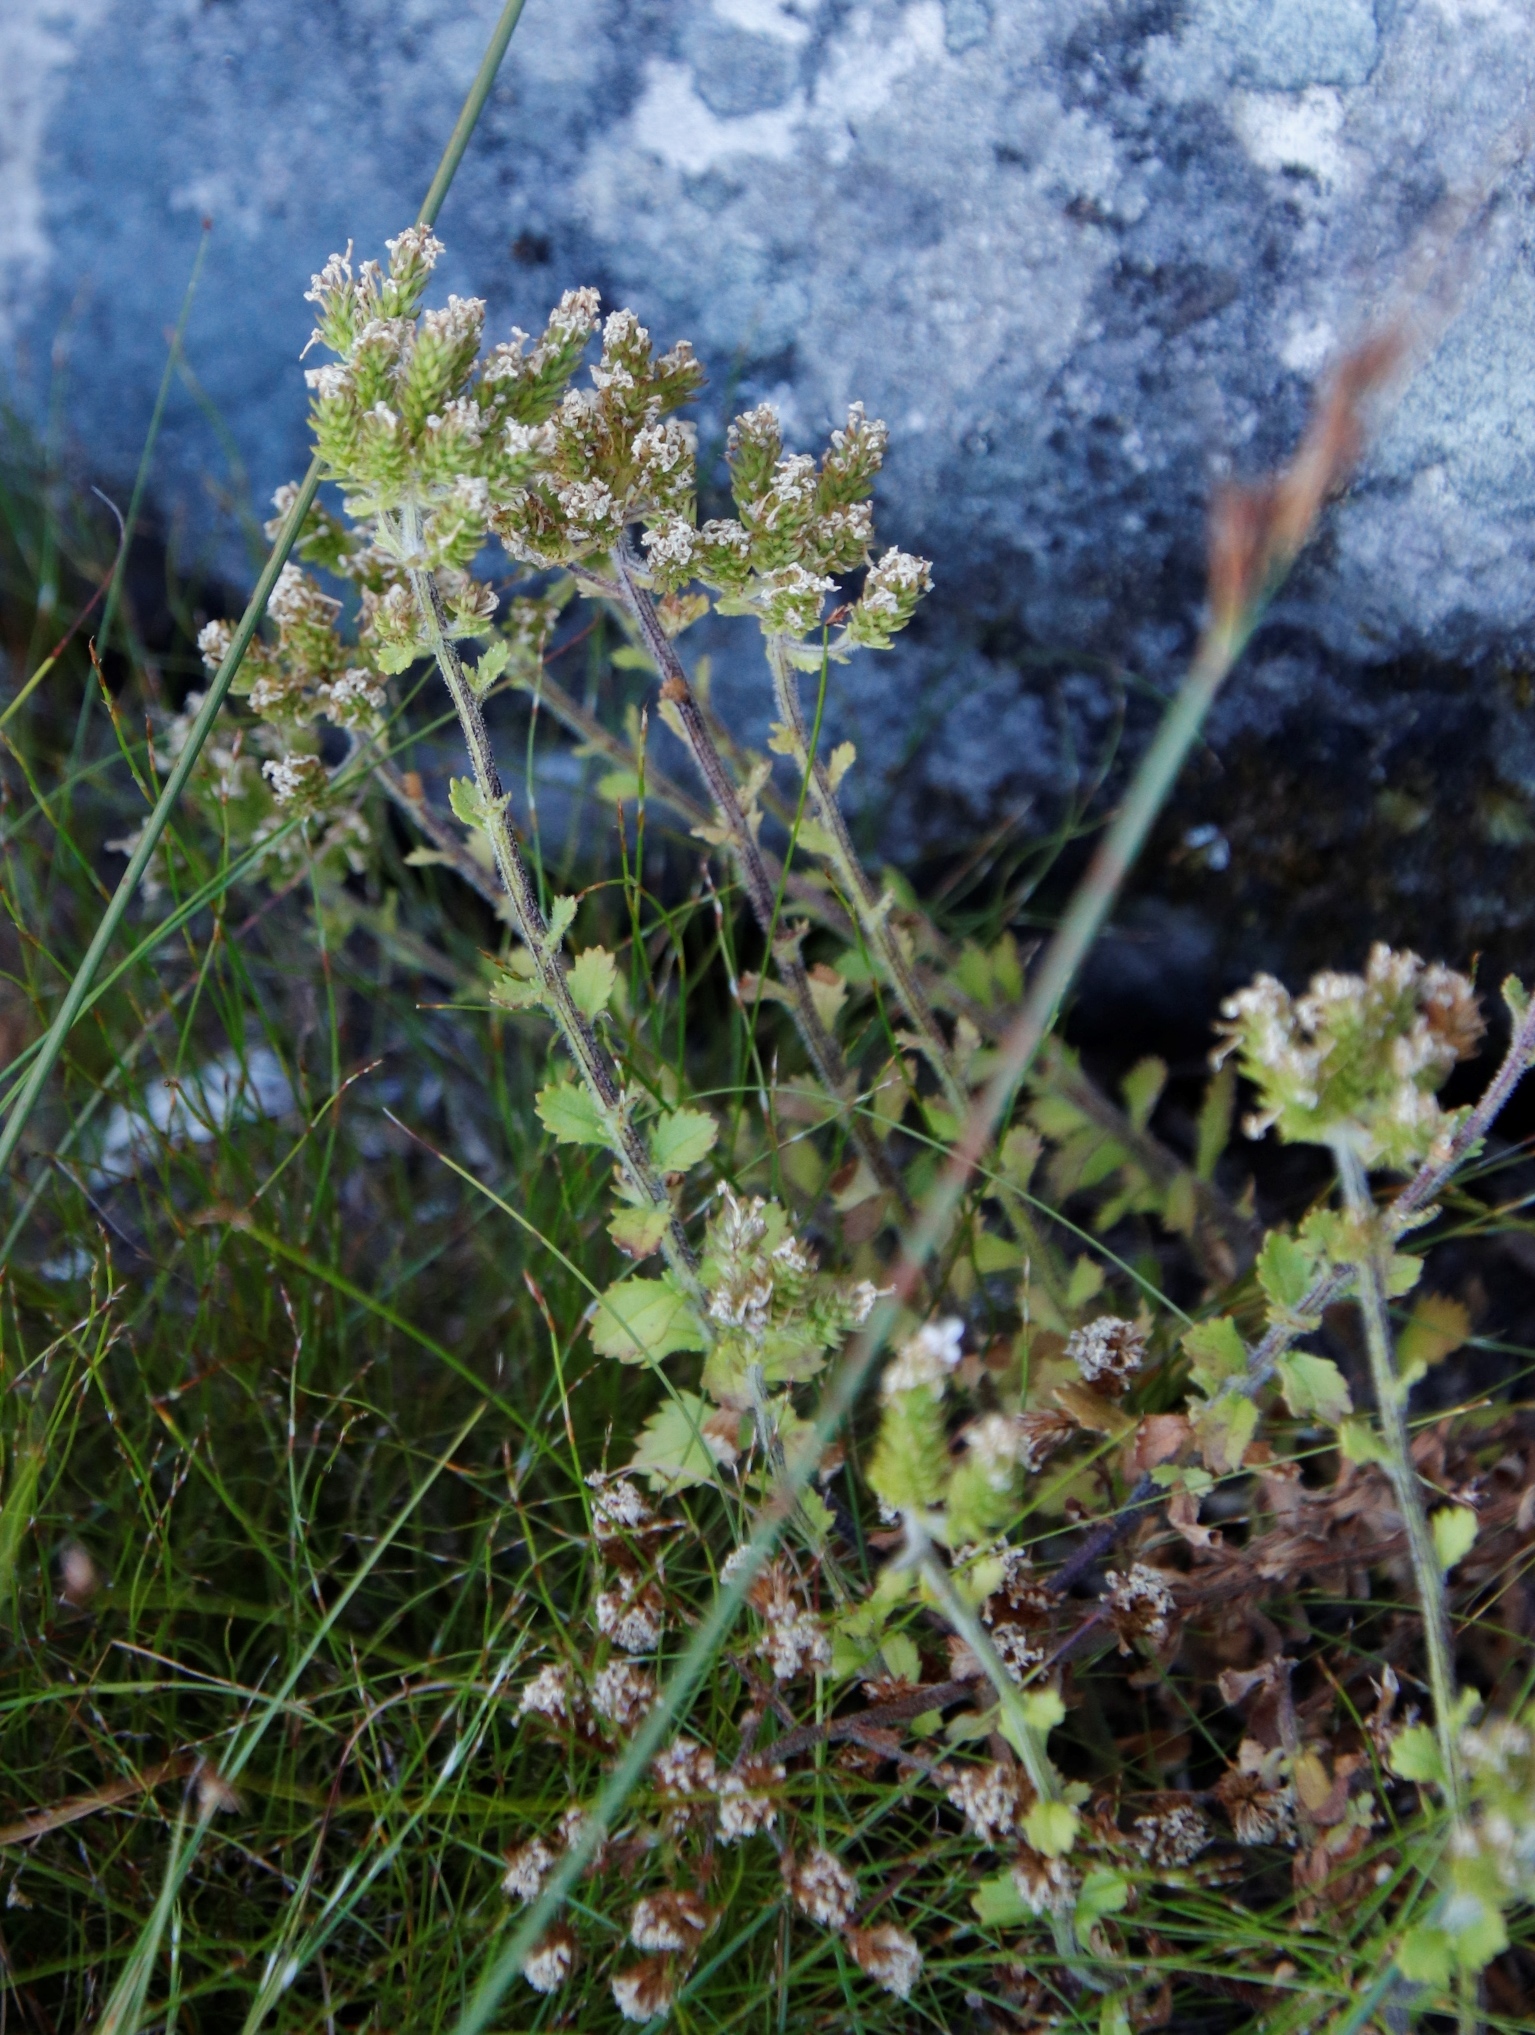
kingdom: Plantae
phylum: Tracheophyta
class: Magnoliopsida
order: Lamiales
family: Scrophulariaceae
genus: Pseudoselago
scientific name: Pseudoselago peninsulae
